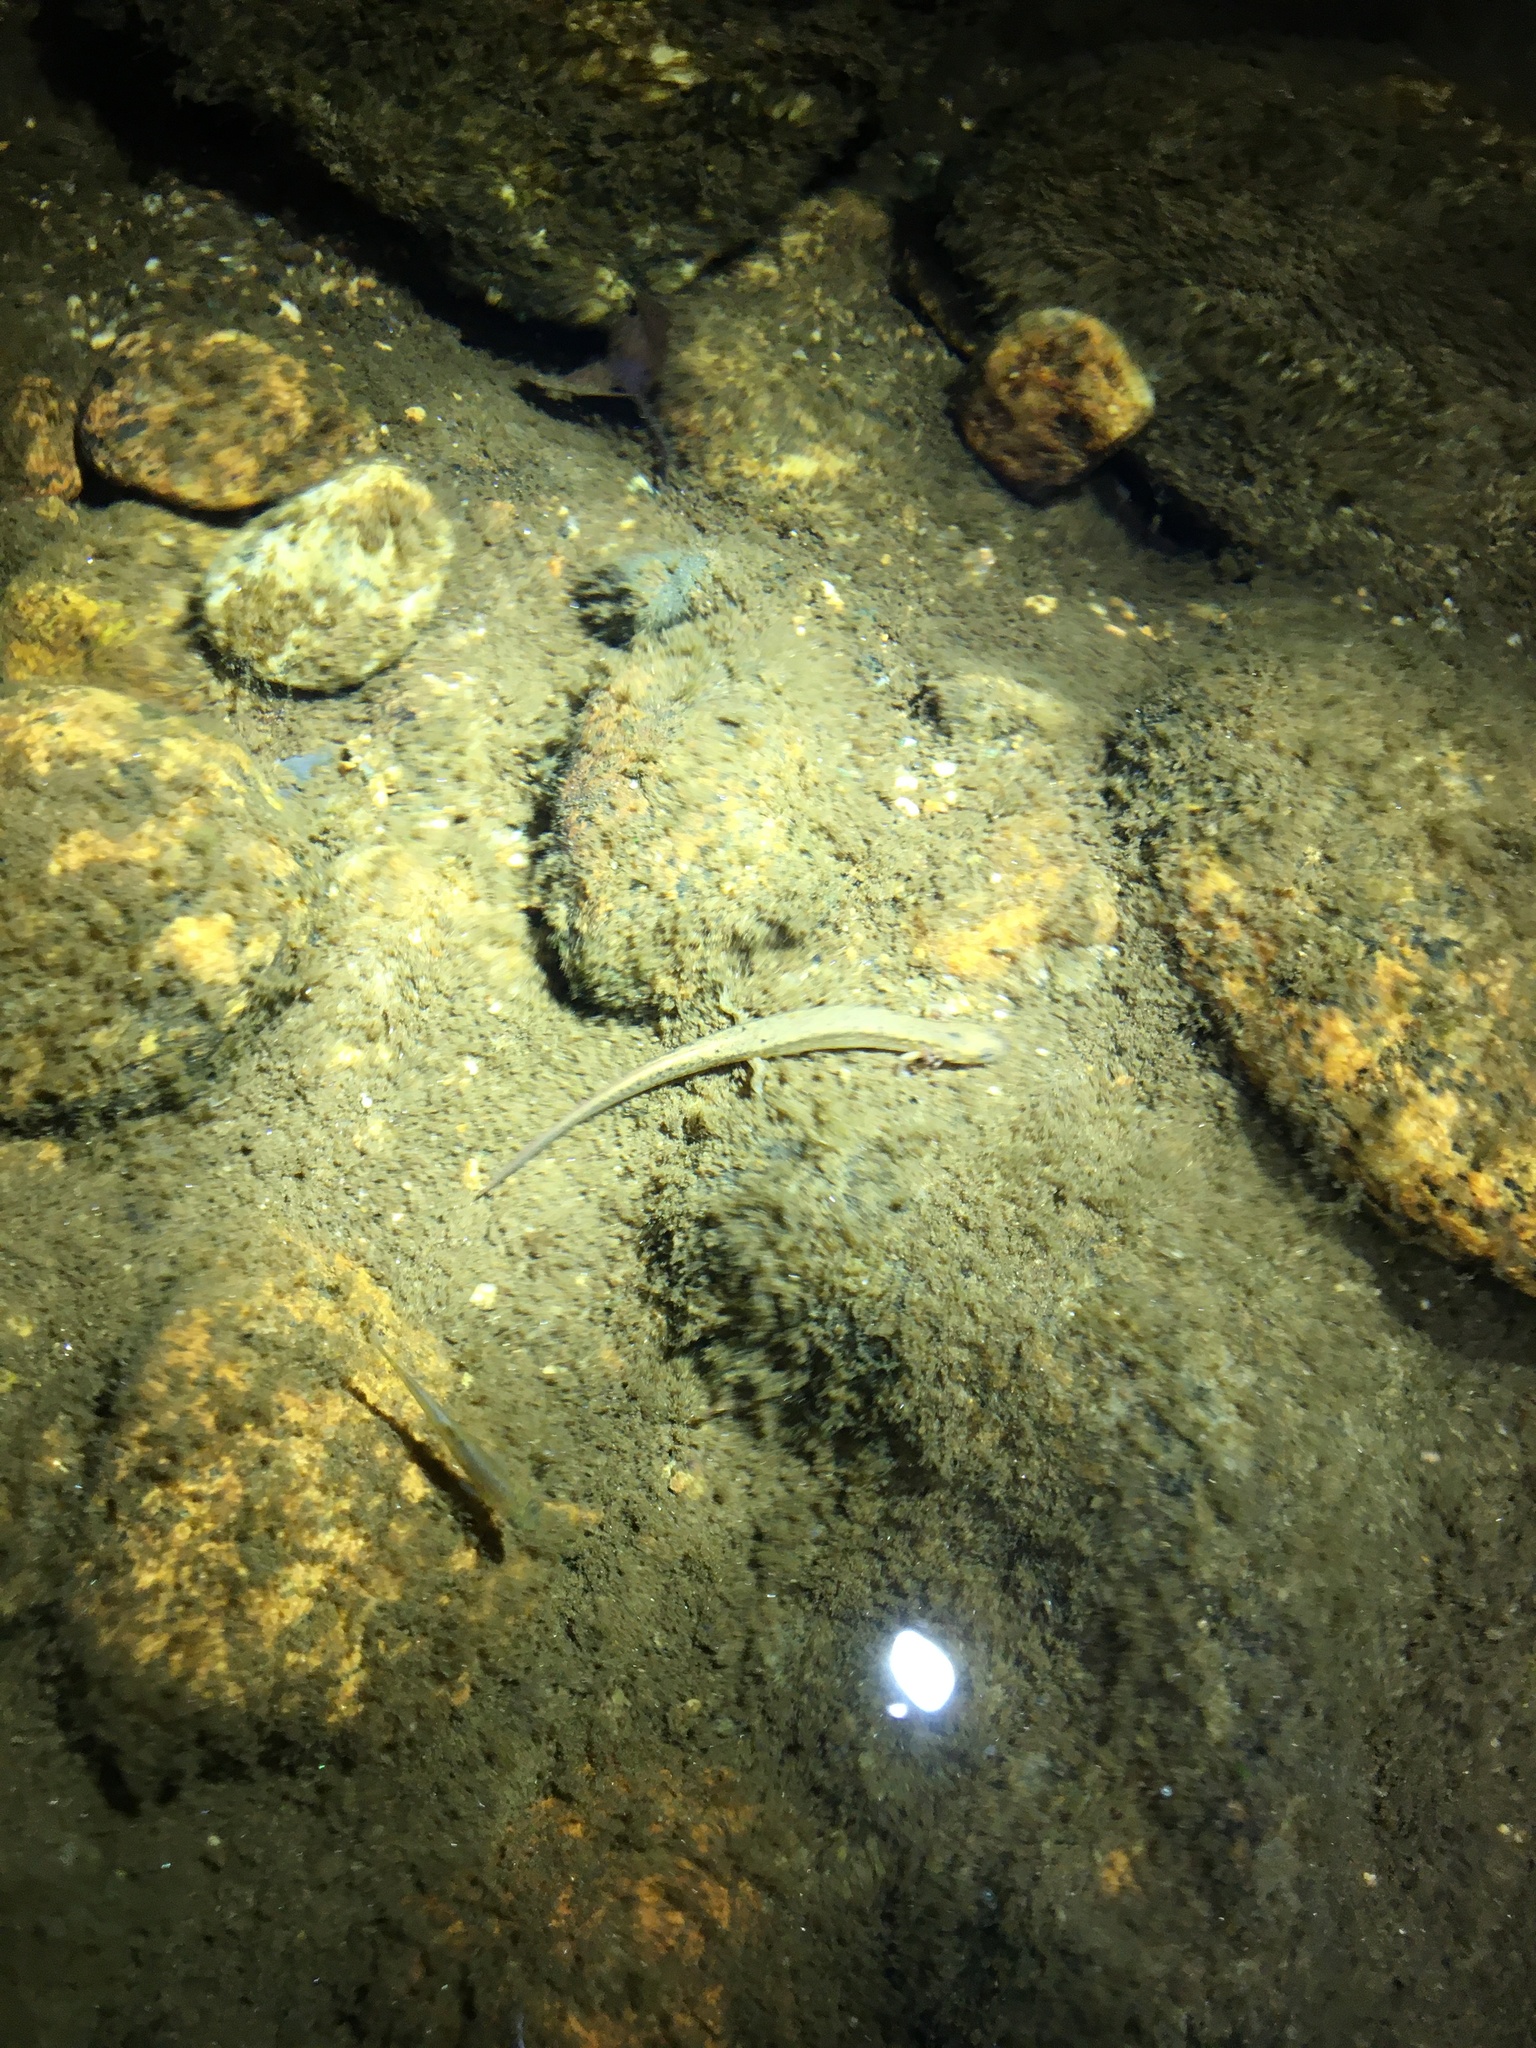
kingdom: Animalia
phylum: Chordata
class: Amphibia
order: Caudata
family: Plethodontidae
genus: Eurycea
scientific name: Eurycea bislineata
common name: Northern two-lined salamander
